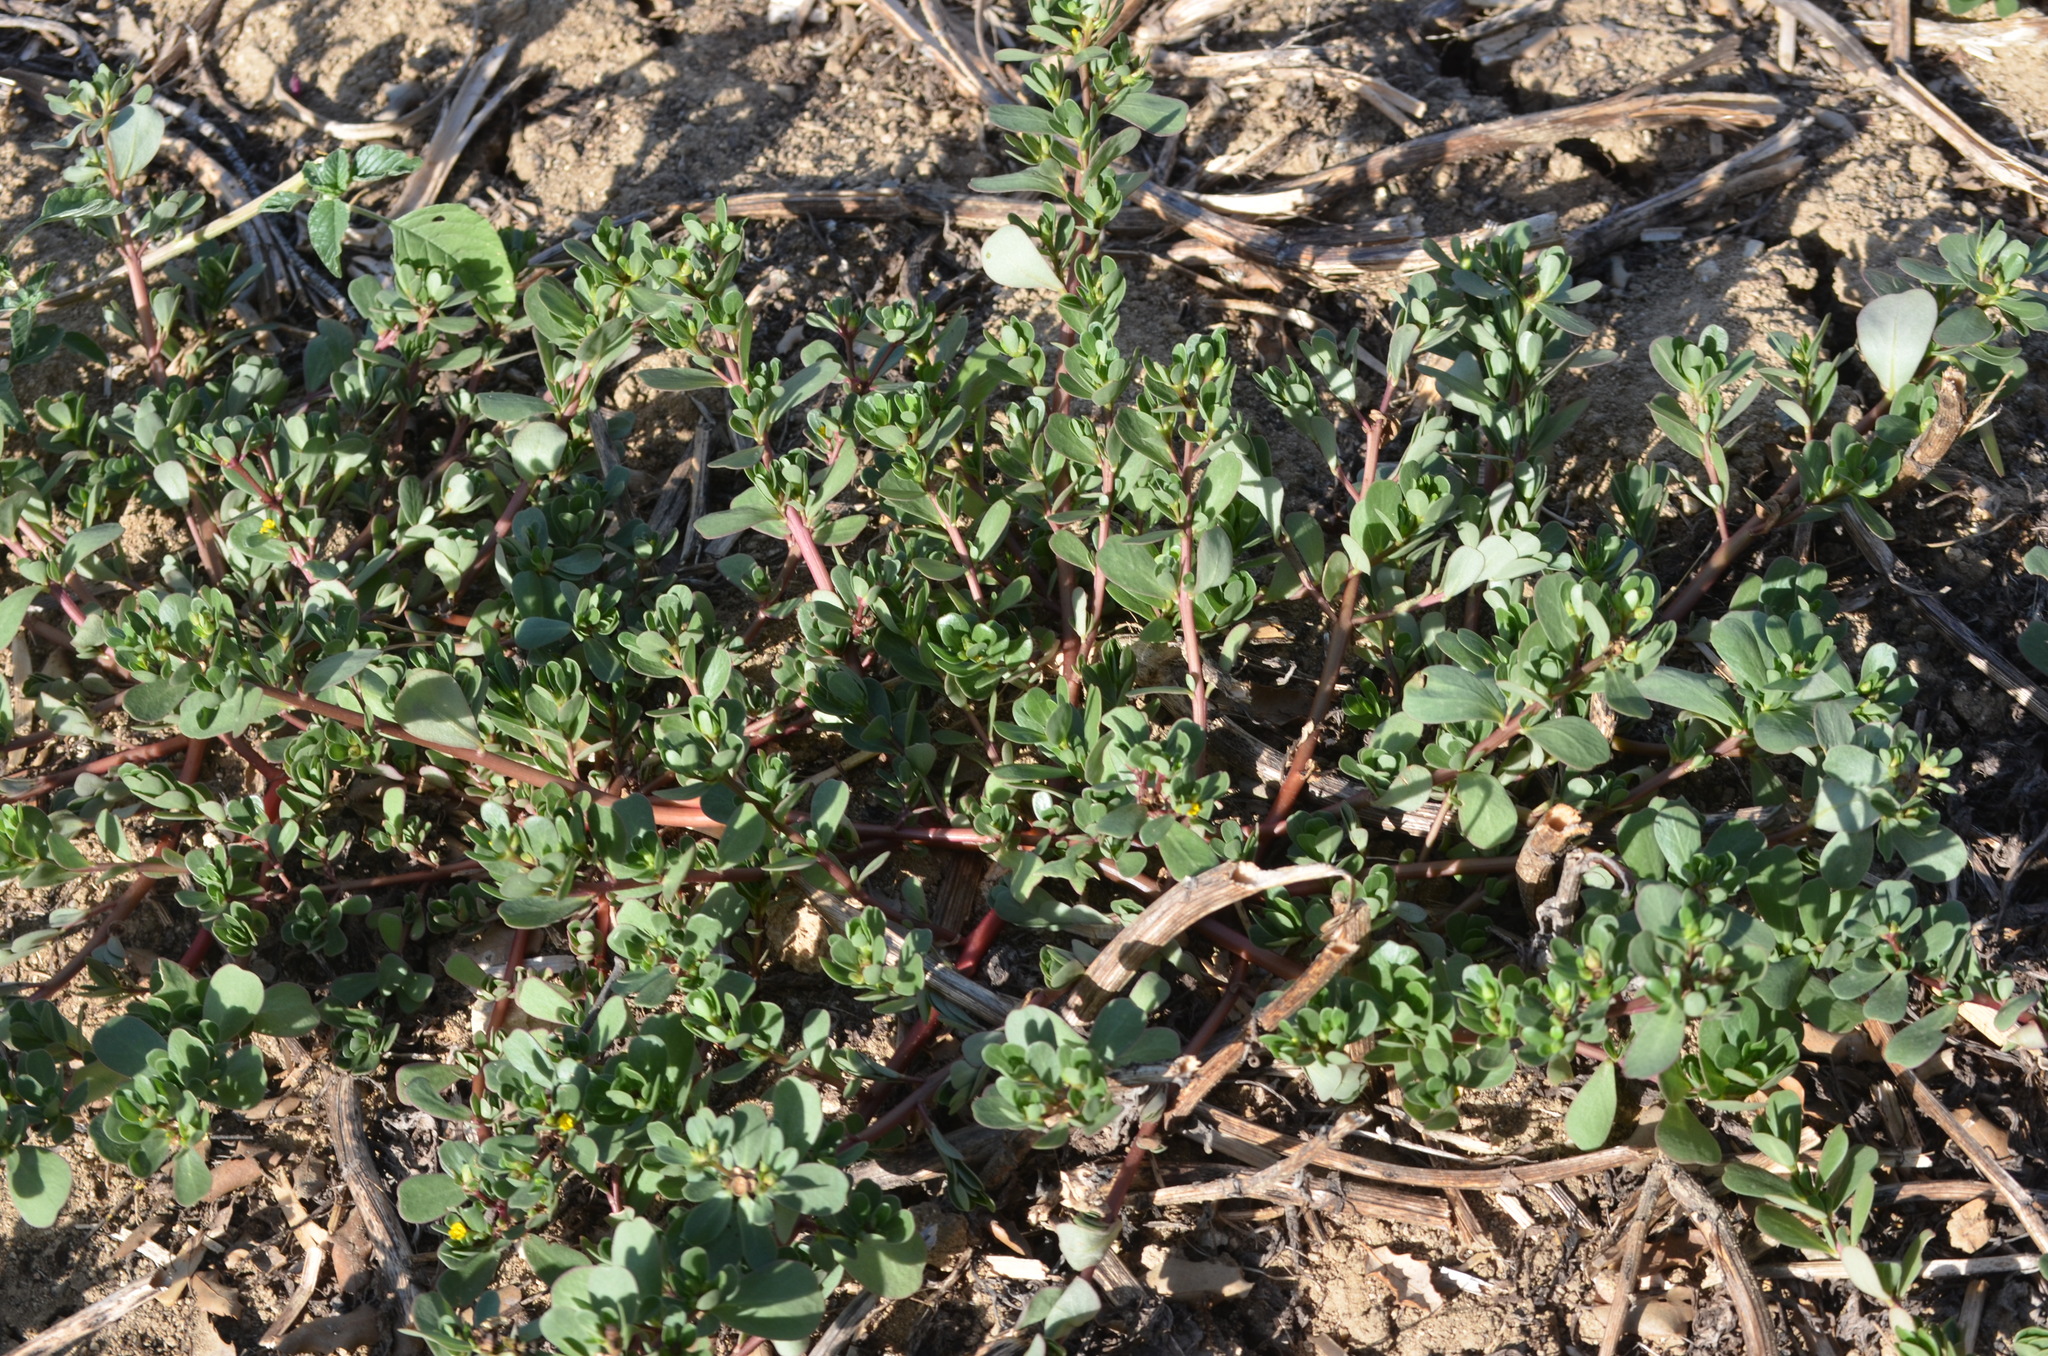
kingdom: Plantae
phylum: Tracheophyta
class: Magnoliopsida
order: Caryophyllales
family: Portulacaceae
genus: Portulaca
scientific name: Portulaca oleracea
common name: Common purslane
